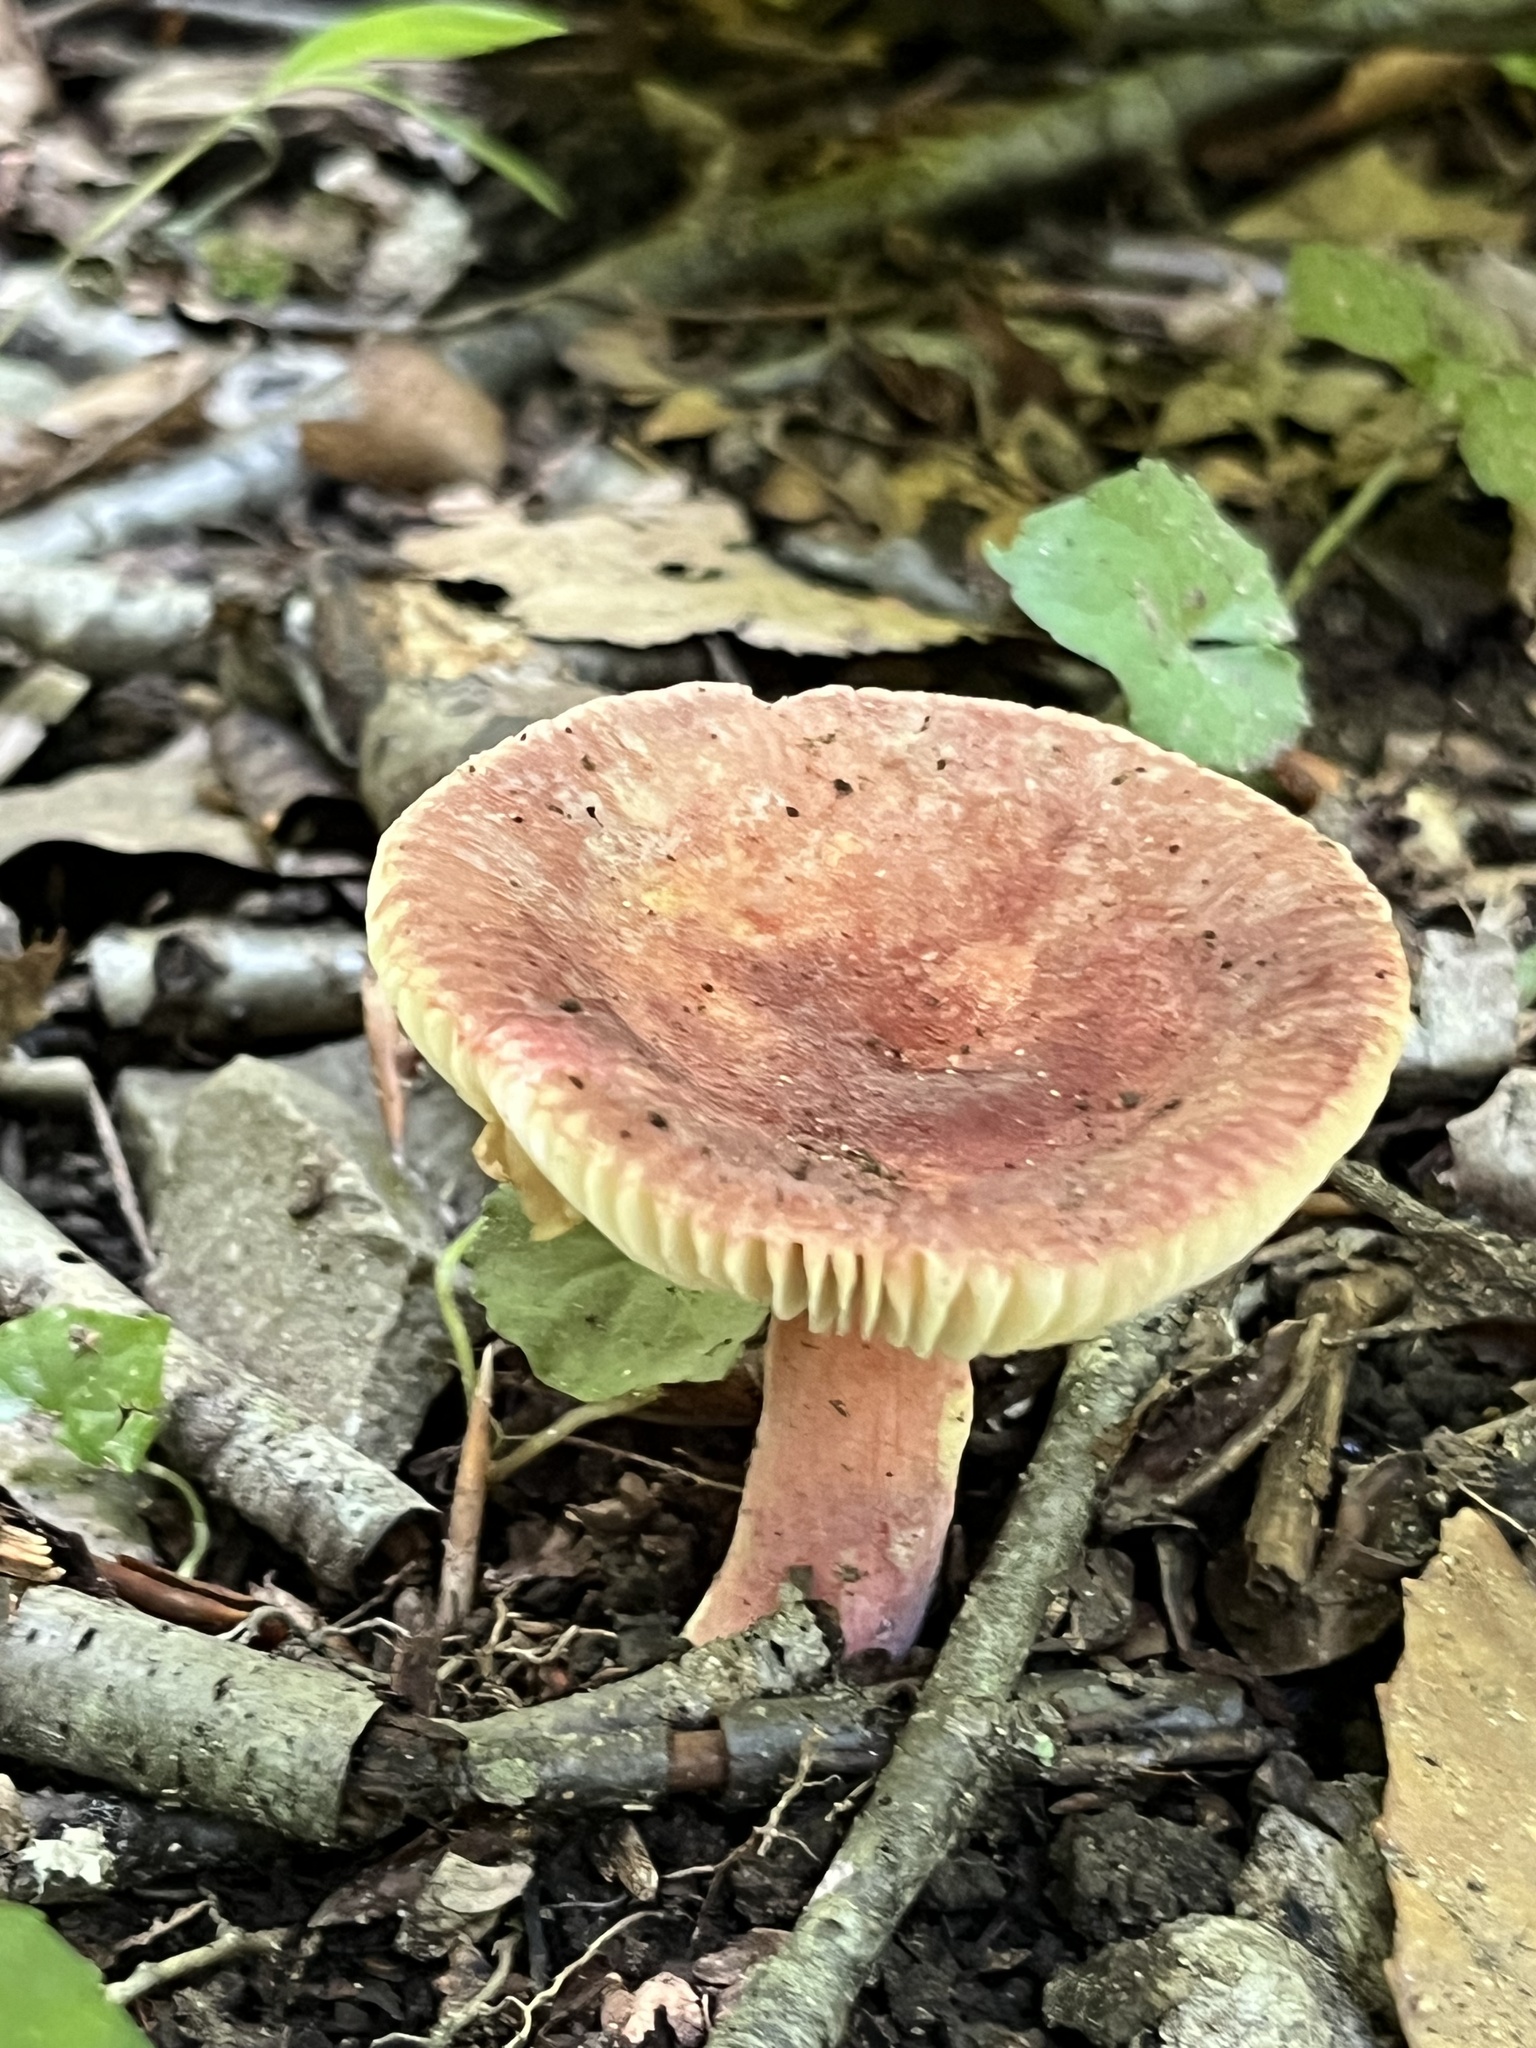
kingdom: Fungi
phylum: Basidiomycota
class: Agaricomycetes
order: Russulales
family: Russulaceae
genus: Russula
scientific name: Russula mariae
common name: Purple-bloom russula
